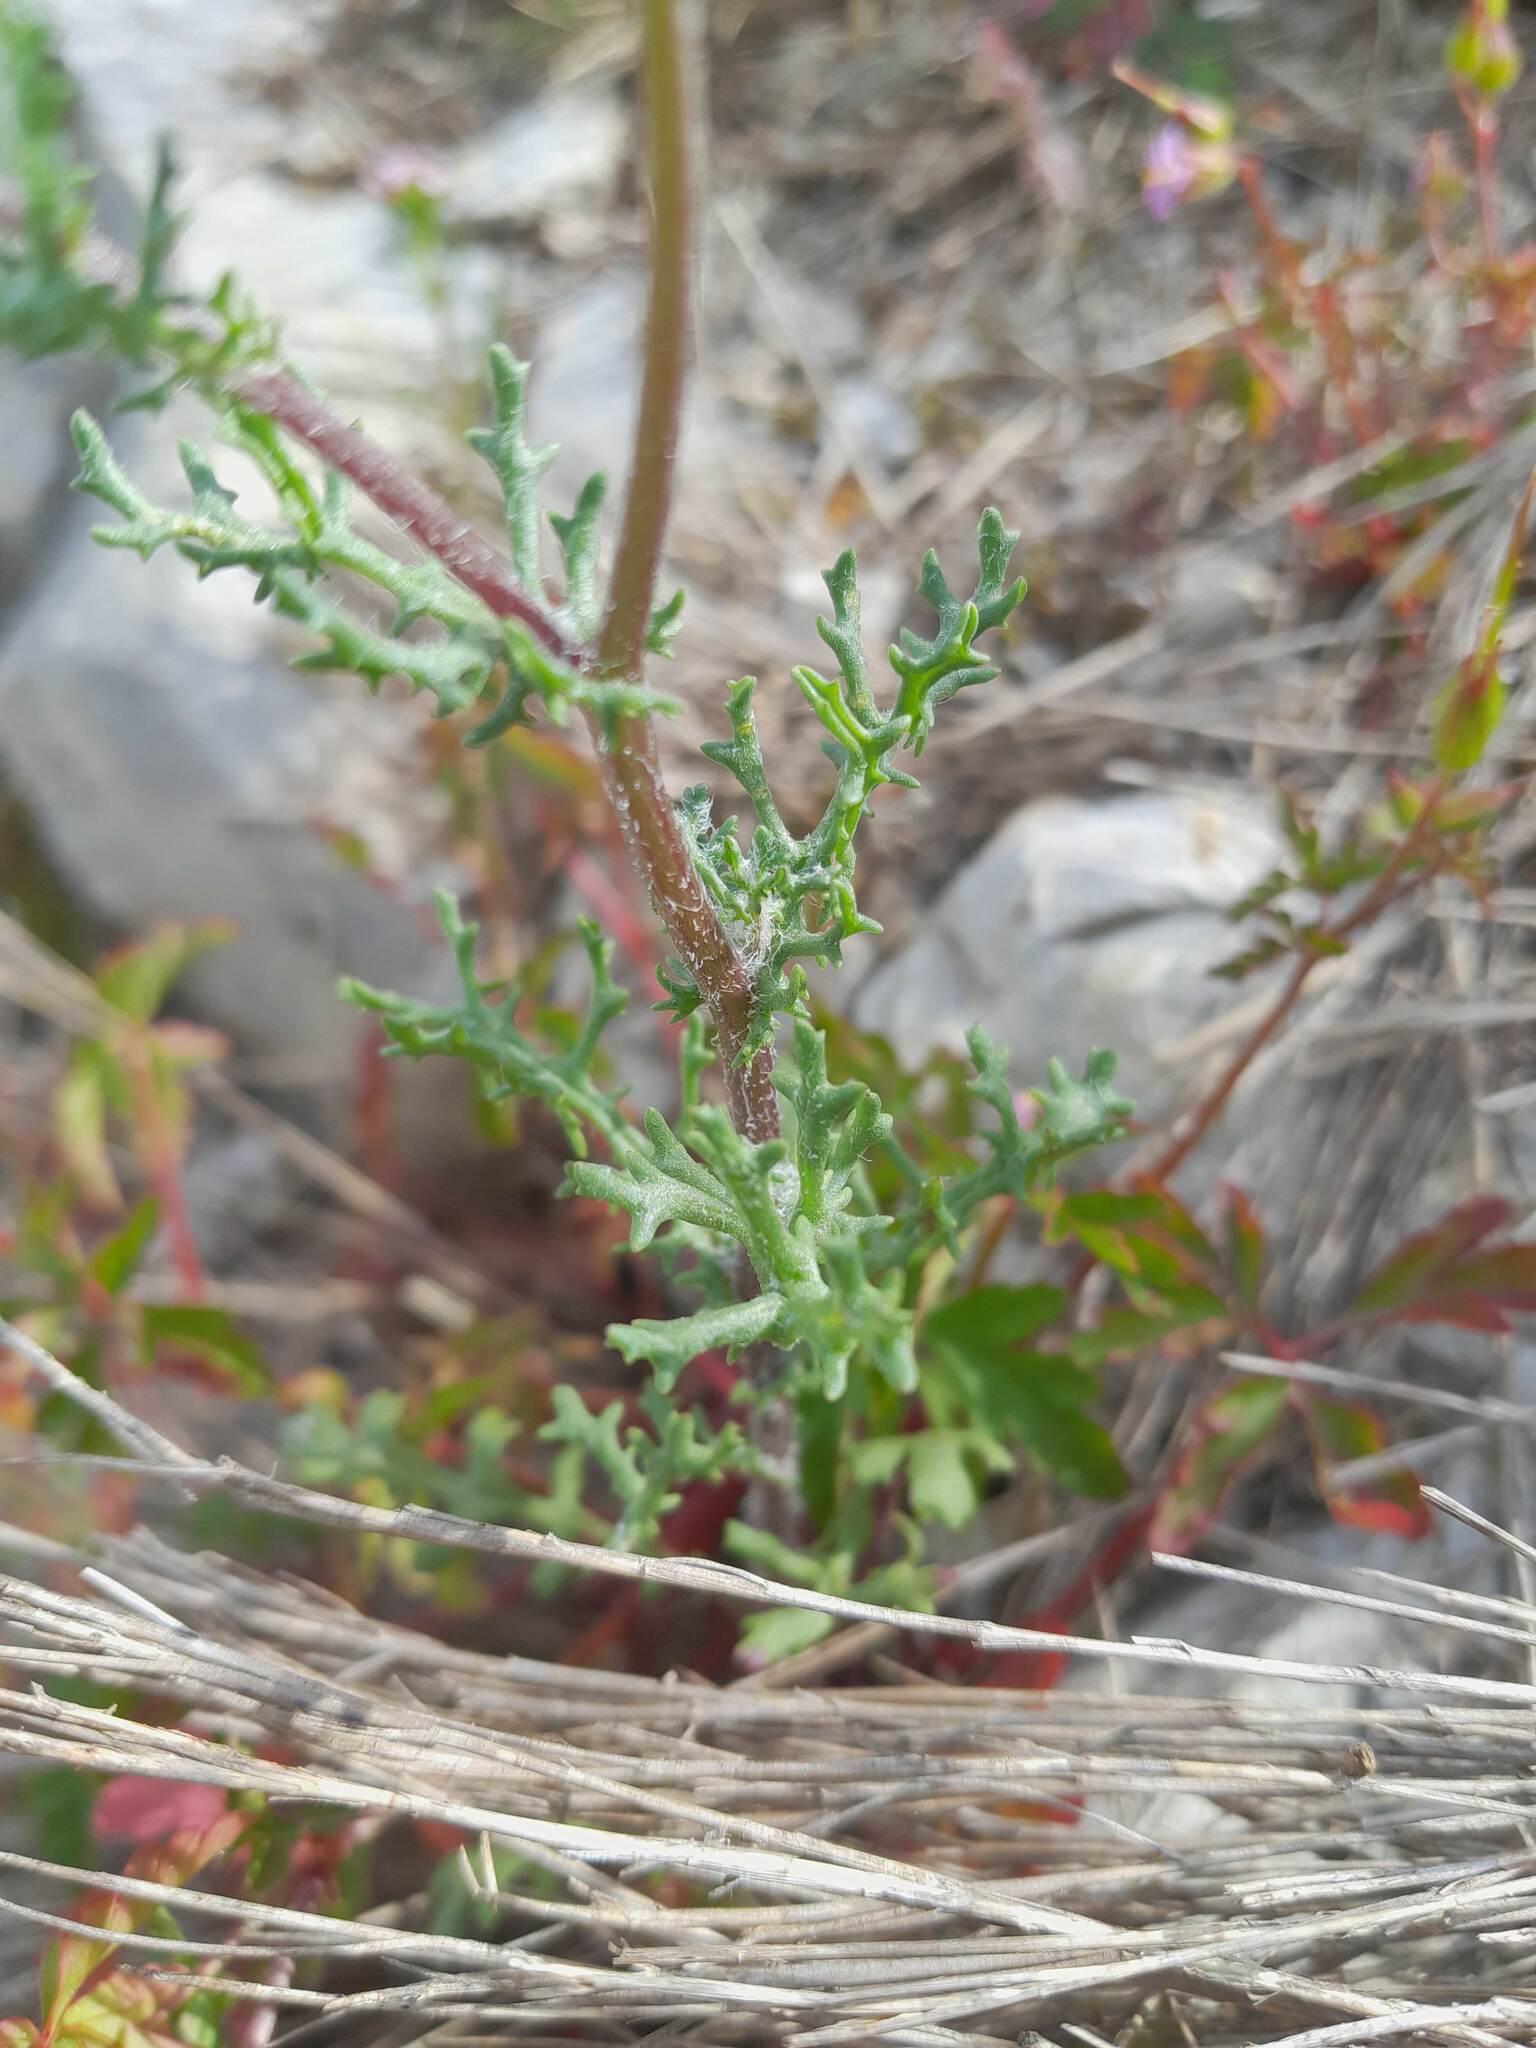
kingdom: Plantae
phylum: Tracheophyta
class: Magnoliopsida
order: Asterales
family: Asteraceae
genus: Senecio
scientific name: Senecio gallicus
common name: French groundsel
